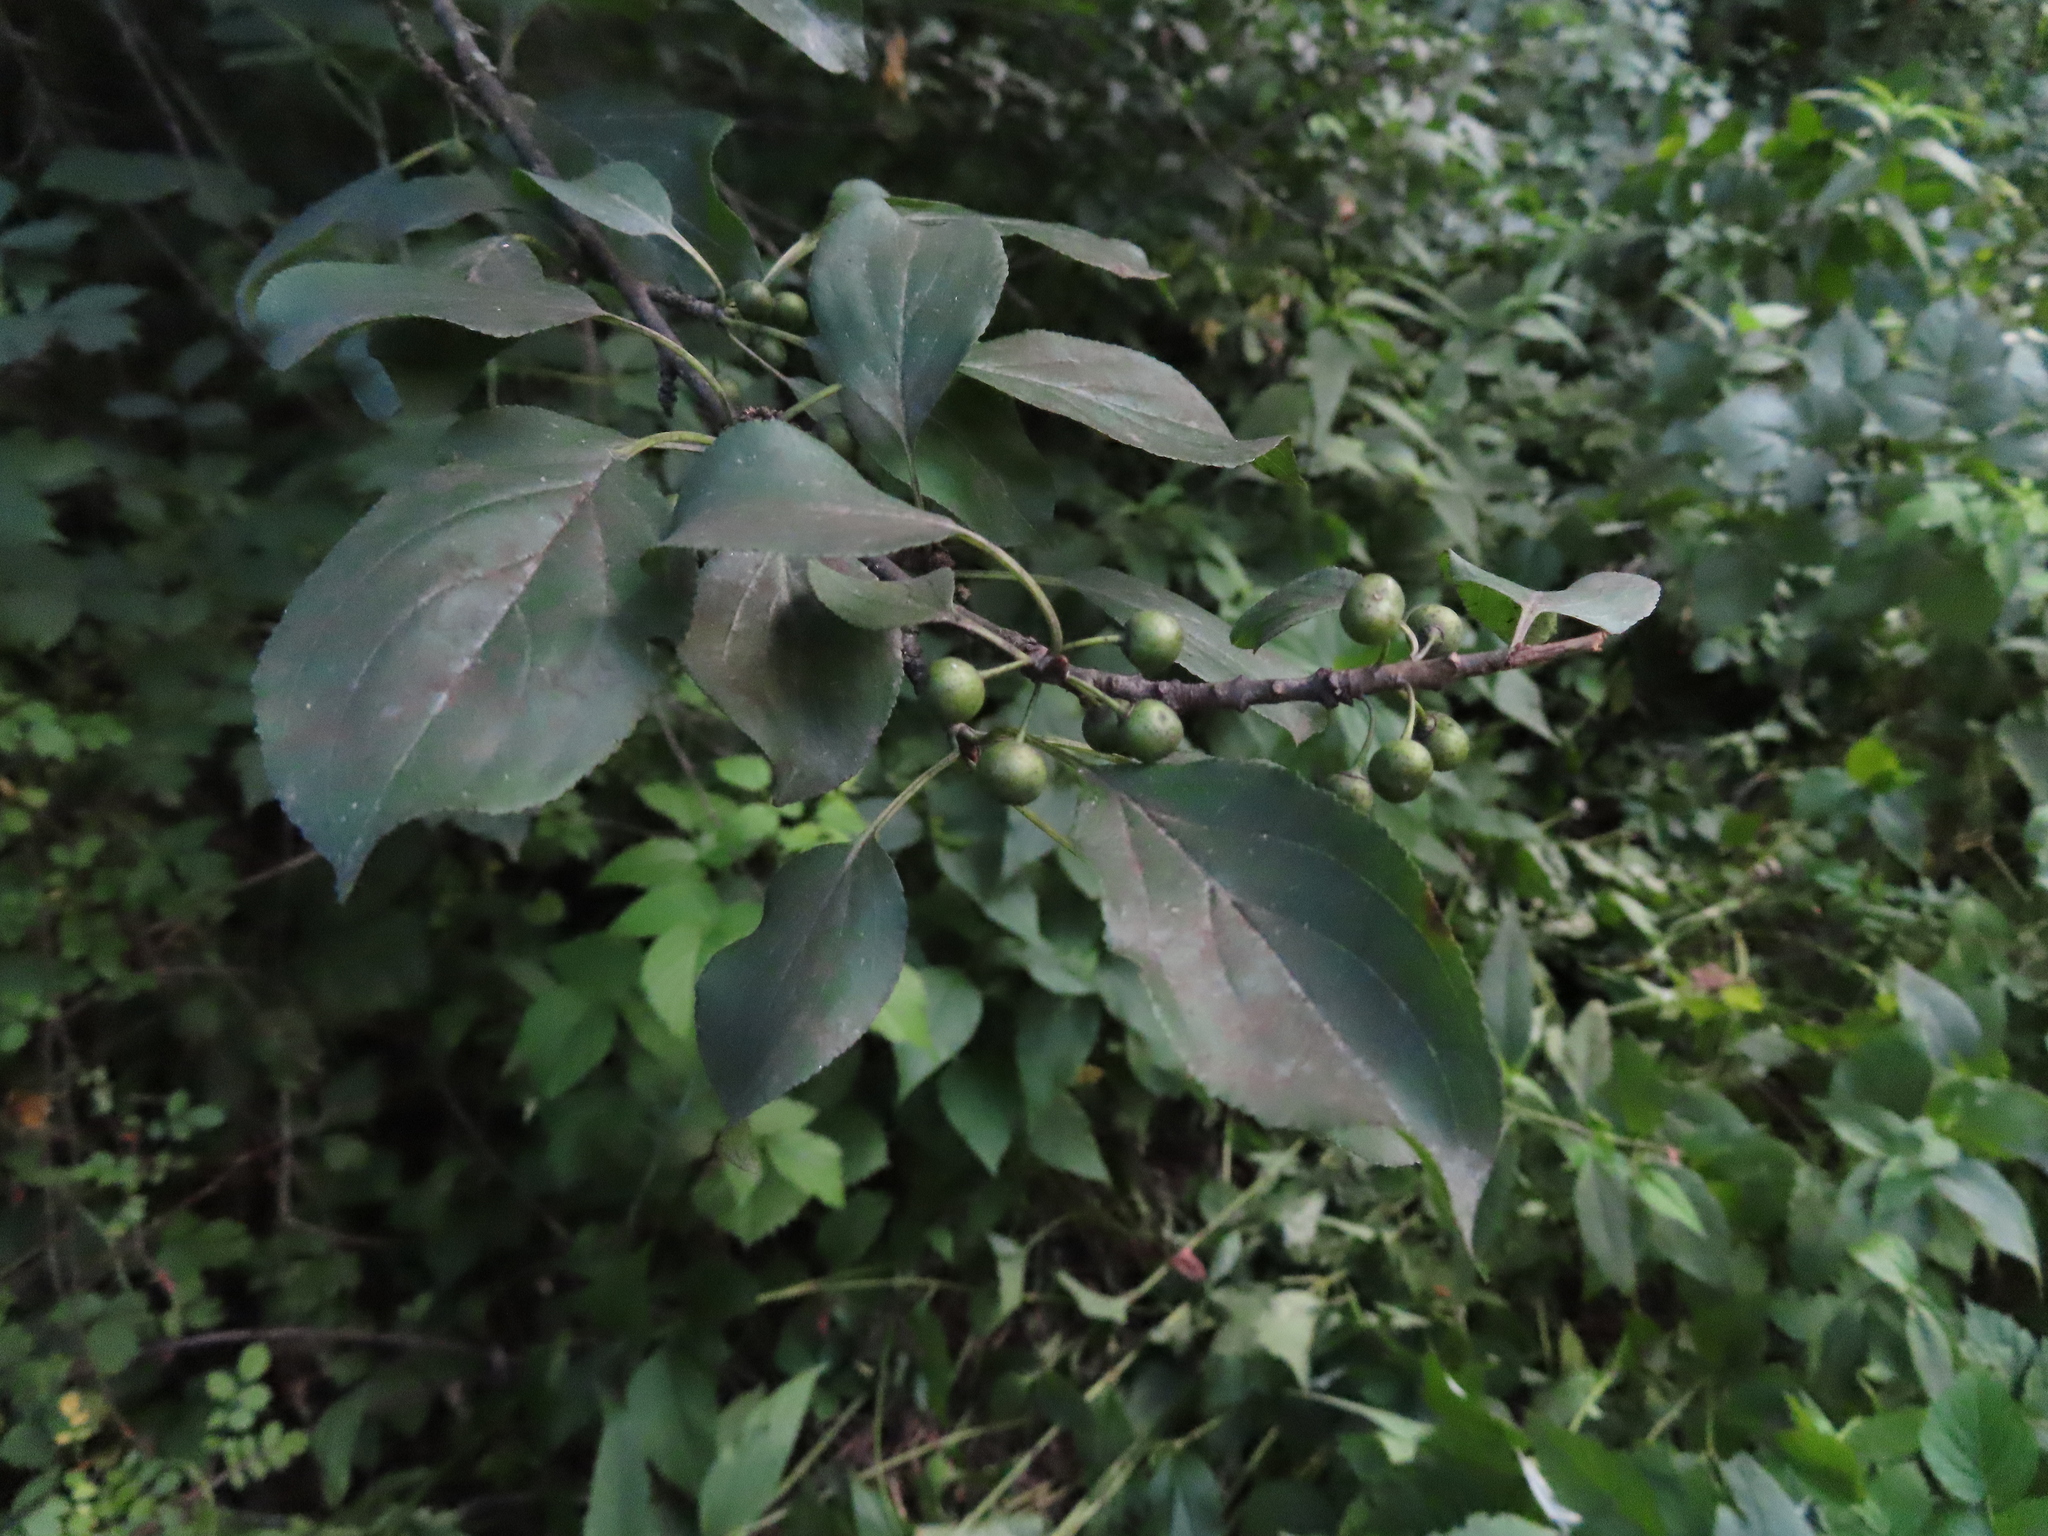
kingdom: Plantae
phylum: Tracheophyta
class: Magnoliopsida
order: Rosales
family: Rhamnaceae
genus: Rhamnus
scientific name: Rhamnus cathartica
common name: Common buckthorn
